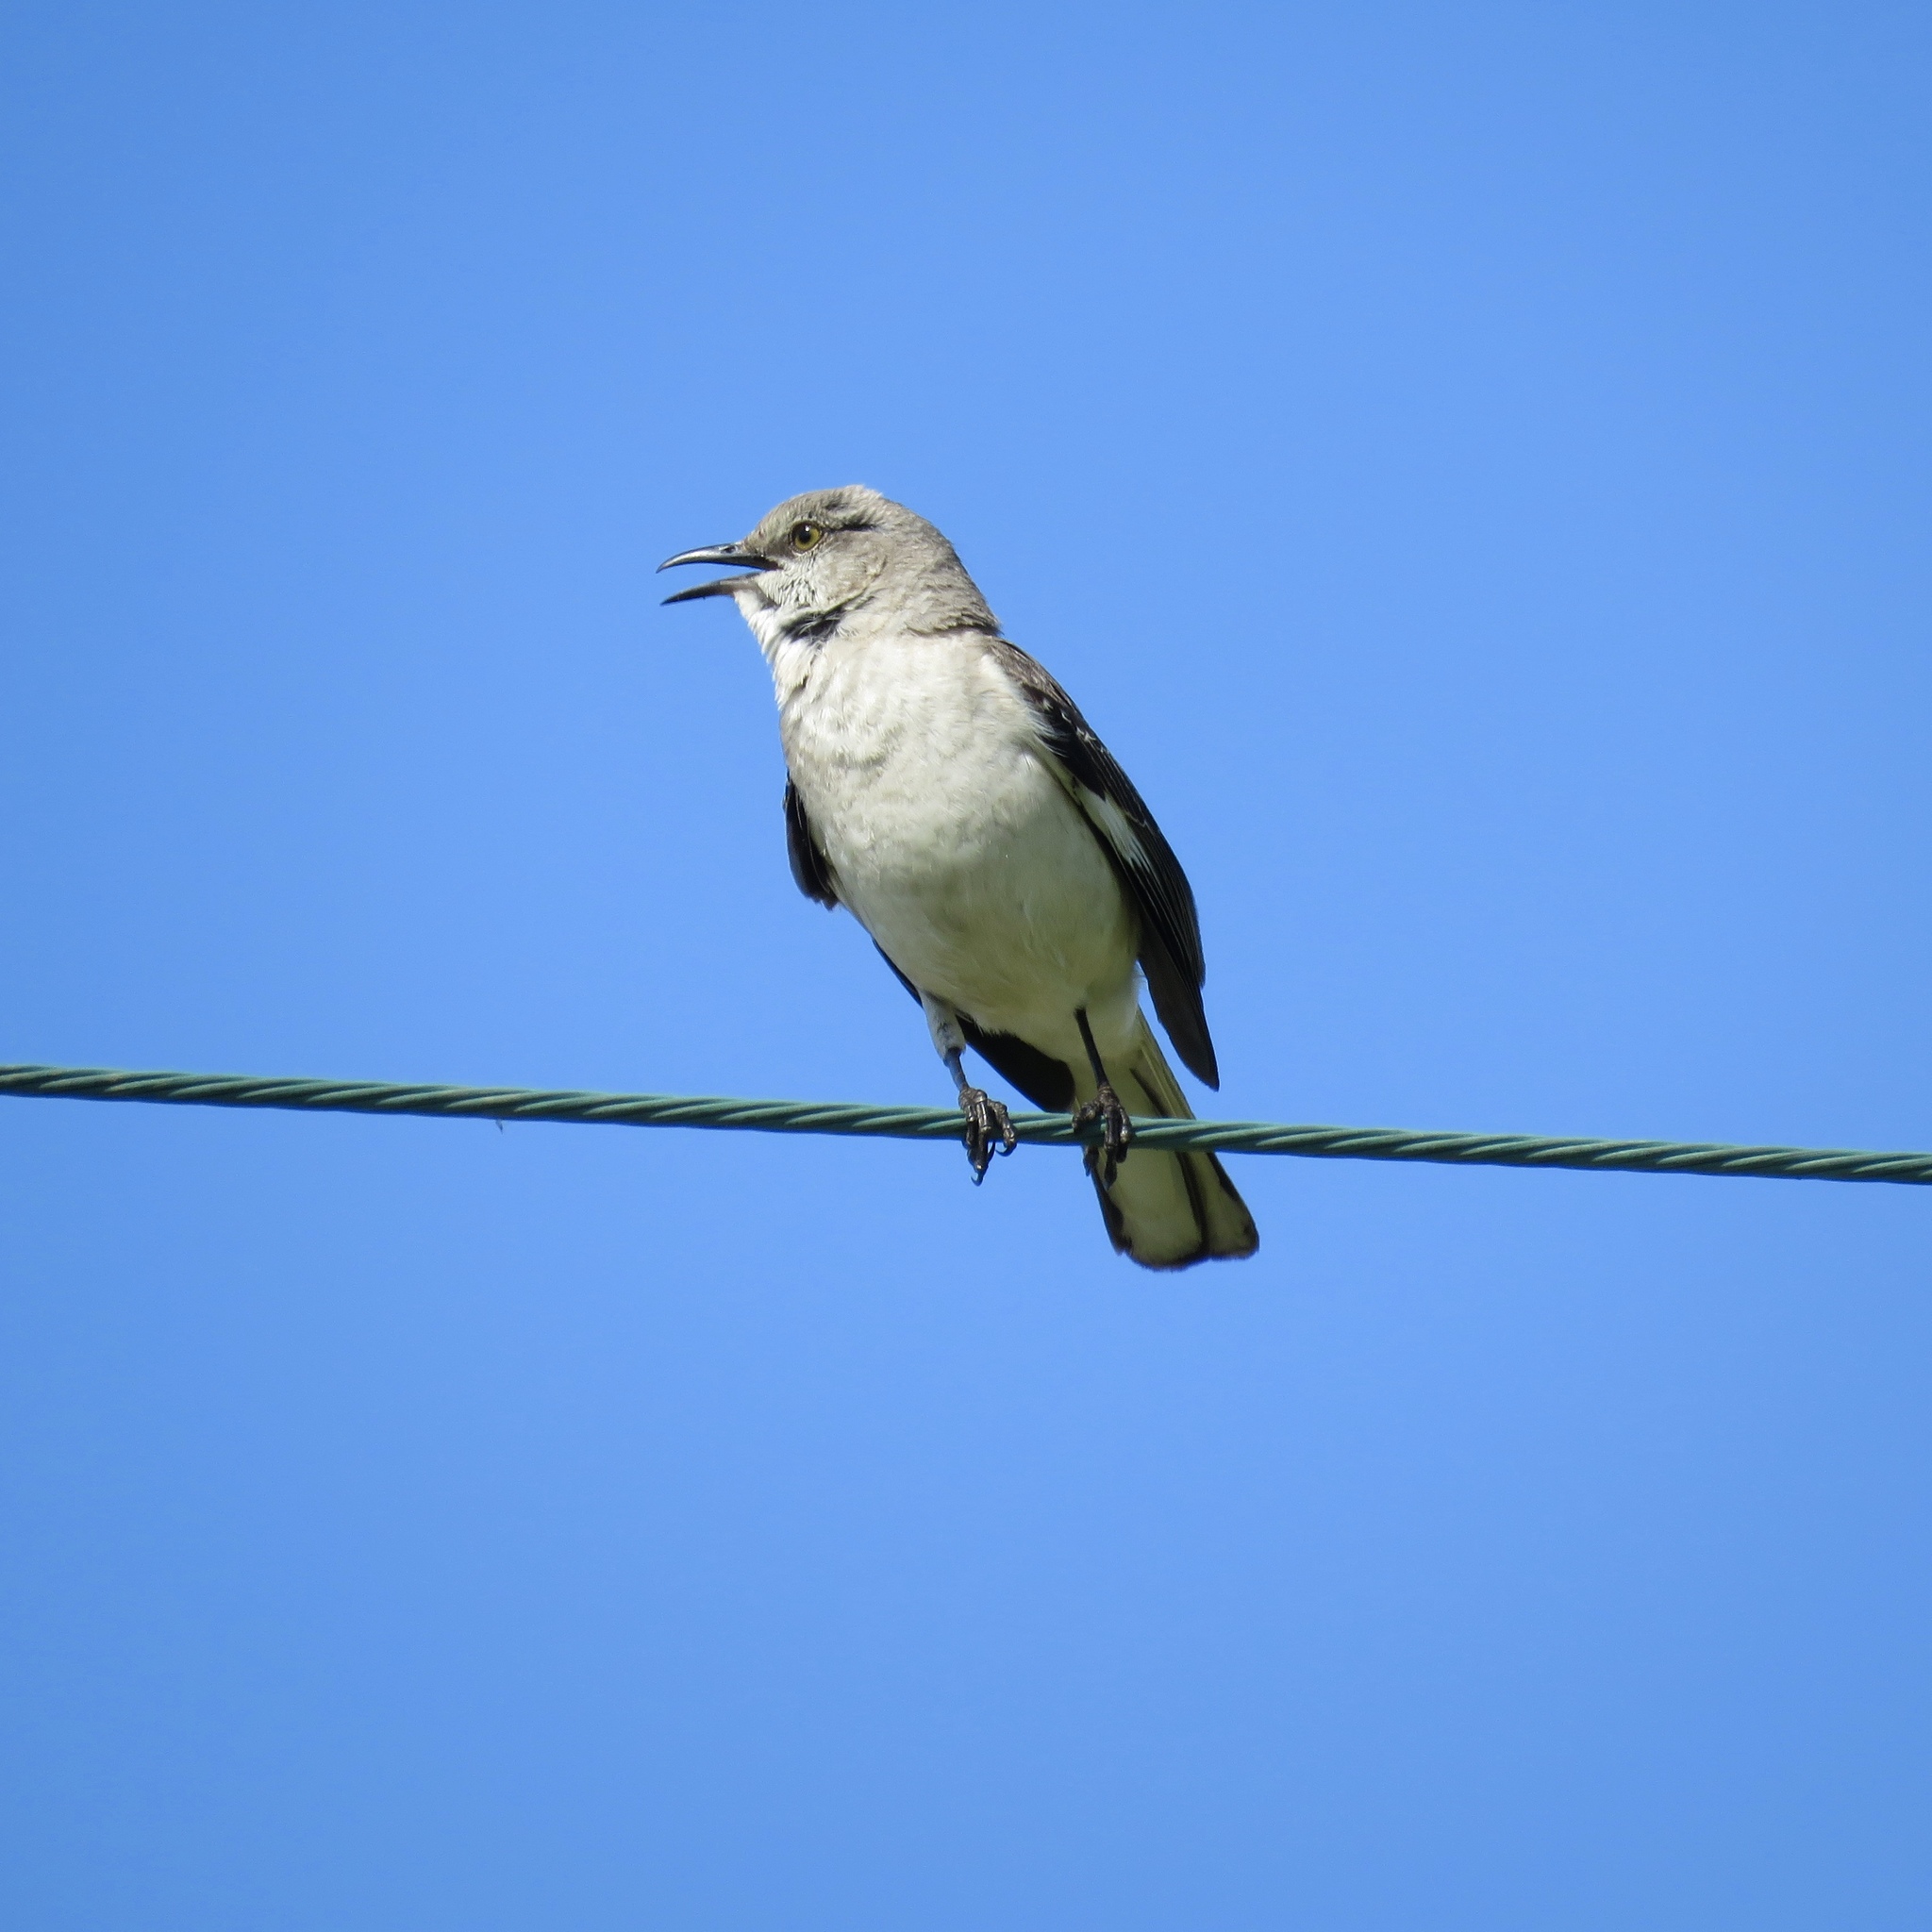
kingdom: Animalia
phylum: Chordata
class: Aves
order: Passeriformes
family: Mimidae
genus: Mimus
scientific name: Mimus polyglottos
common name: Northern mockingbird
